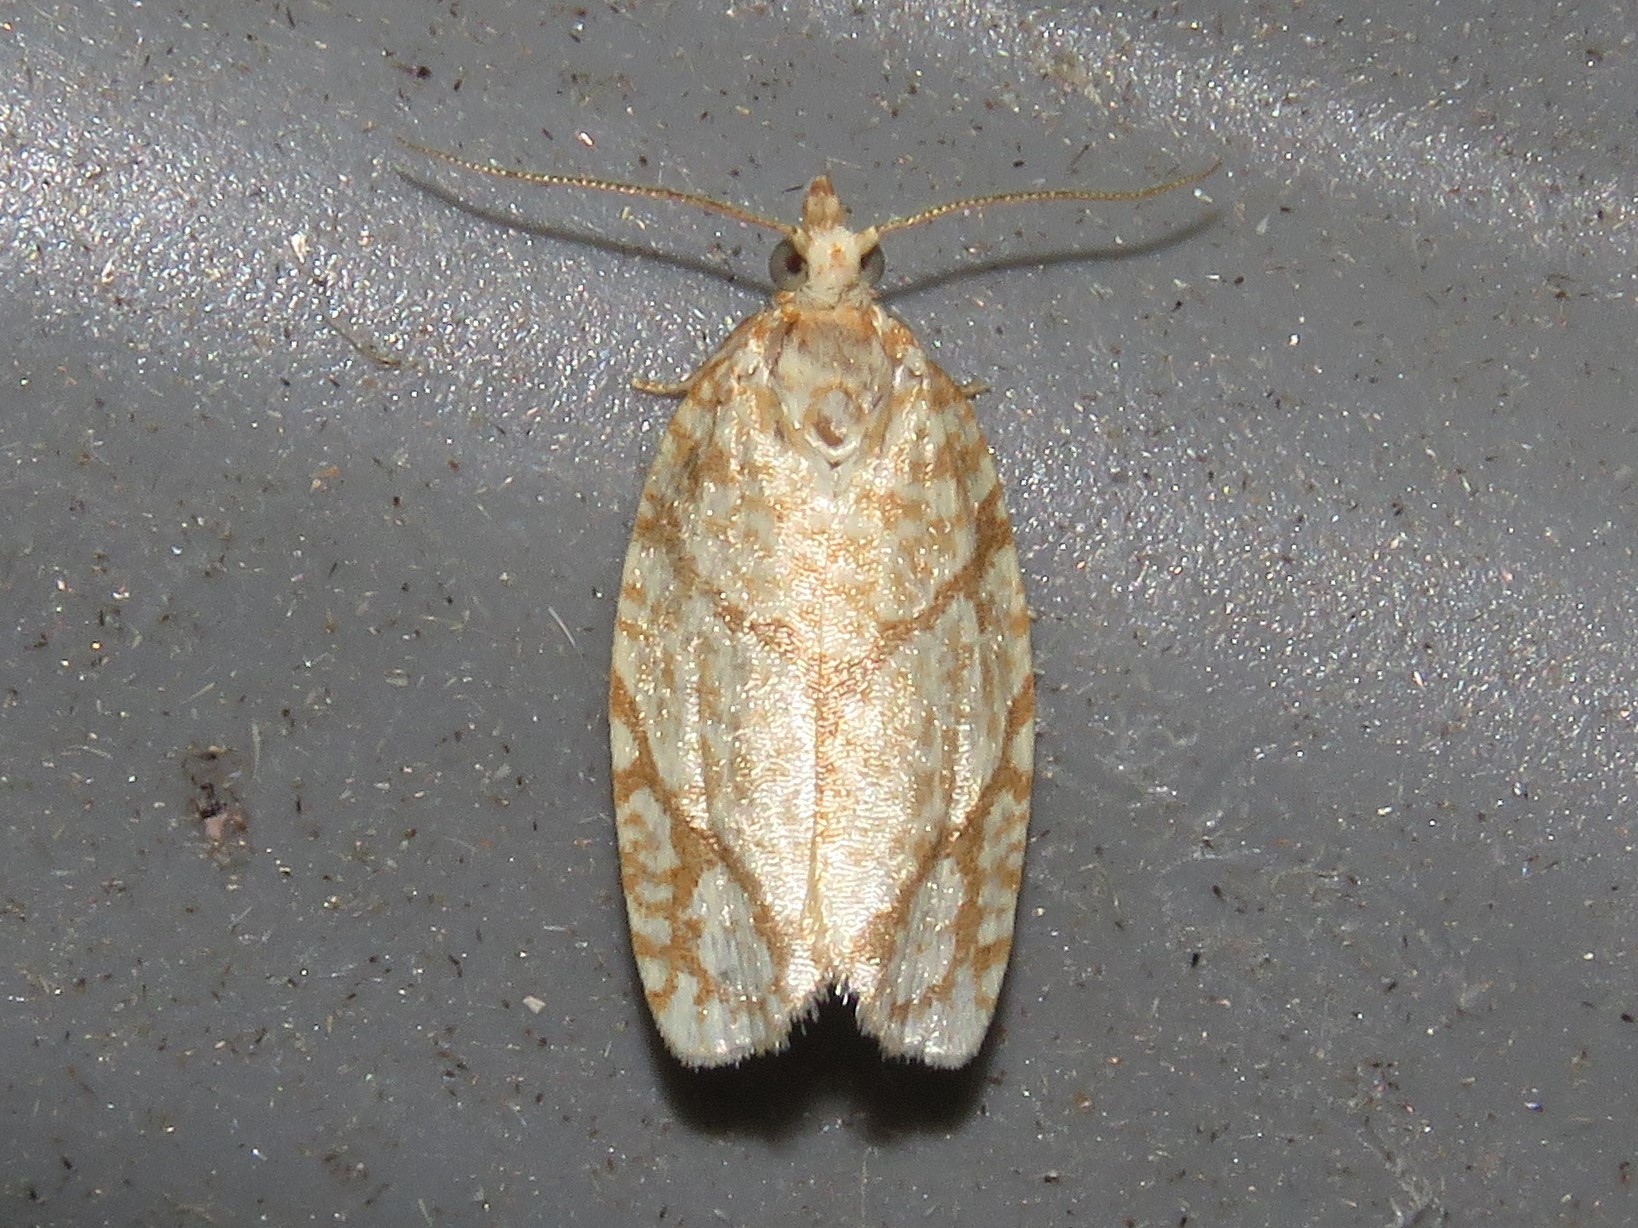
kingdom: Animalia
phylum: Arthropoda
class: Insecta
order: Lepidoptera
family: Tortricidae
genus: Argyrotaenia
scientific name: Argyrotaenia quercifoliana
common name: Yellow-winged oak leafroller moth
